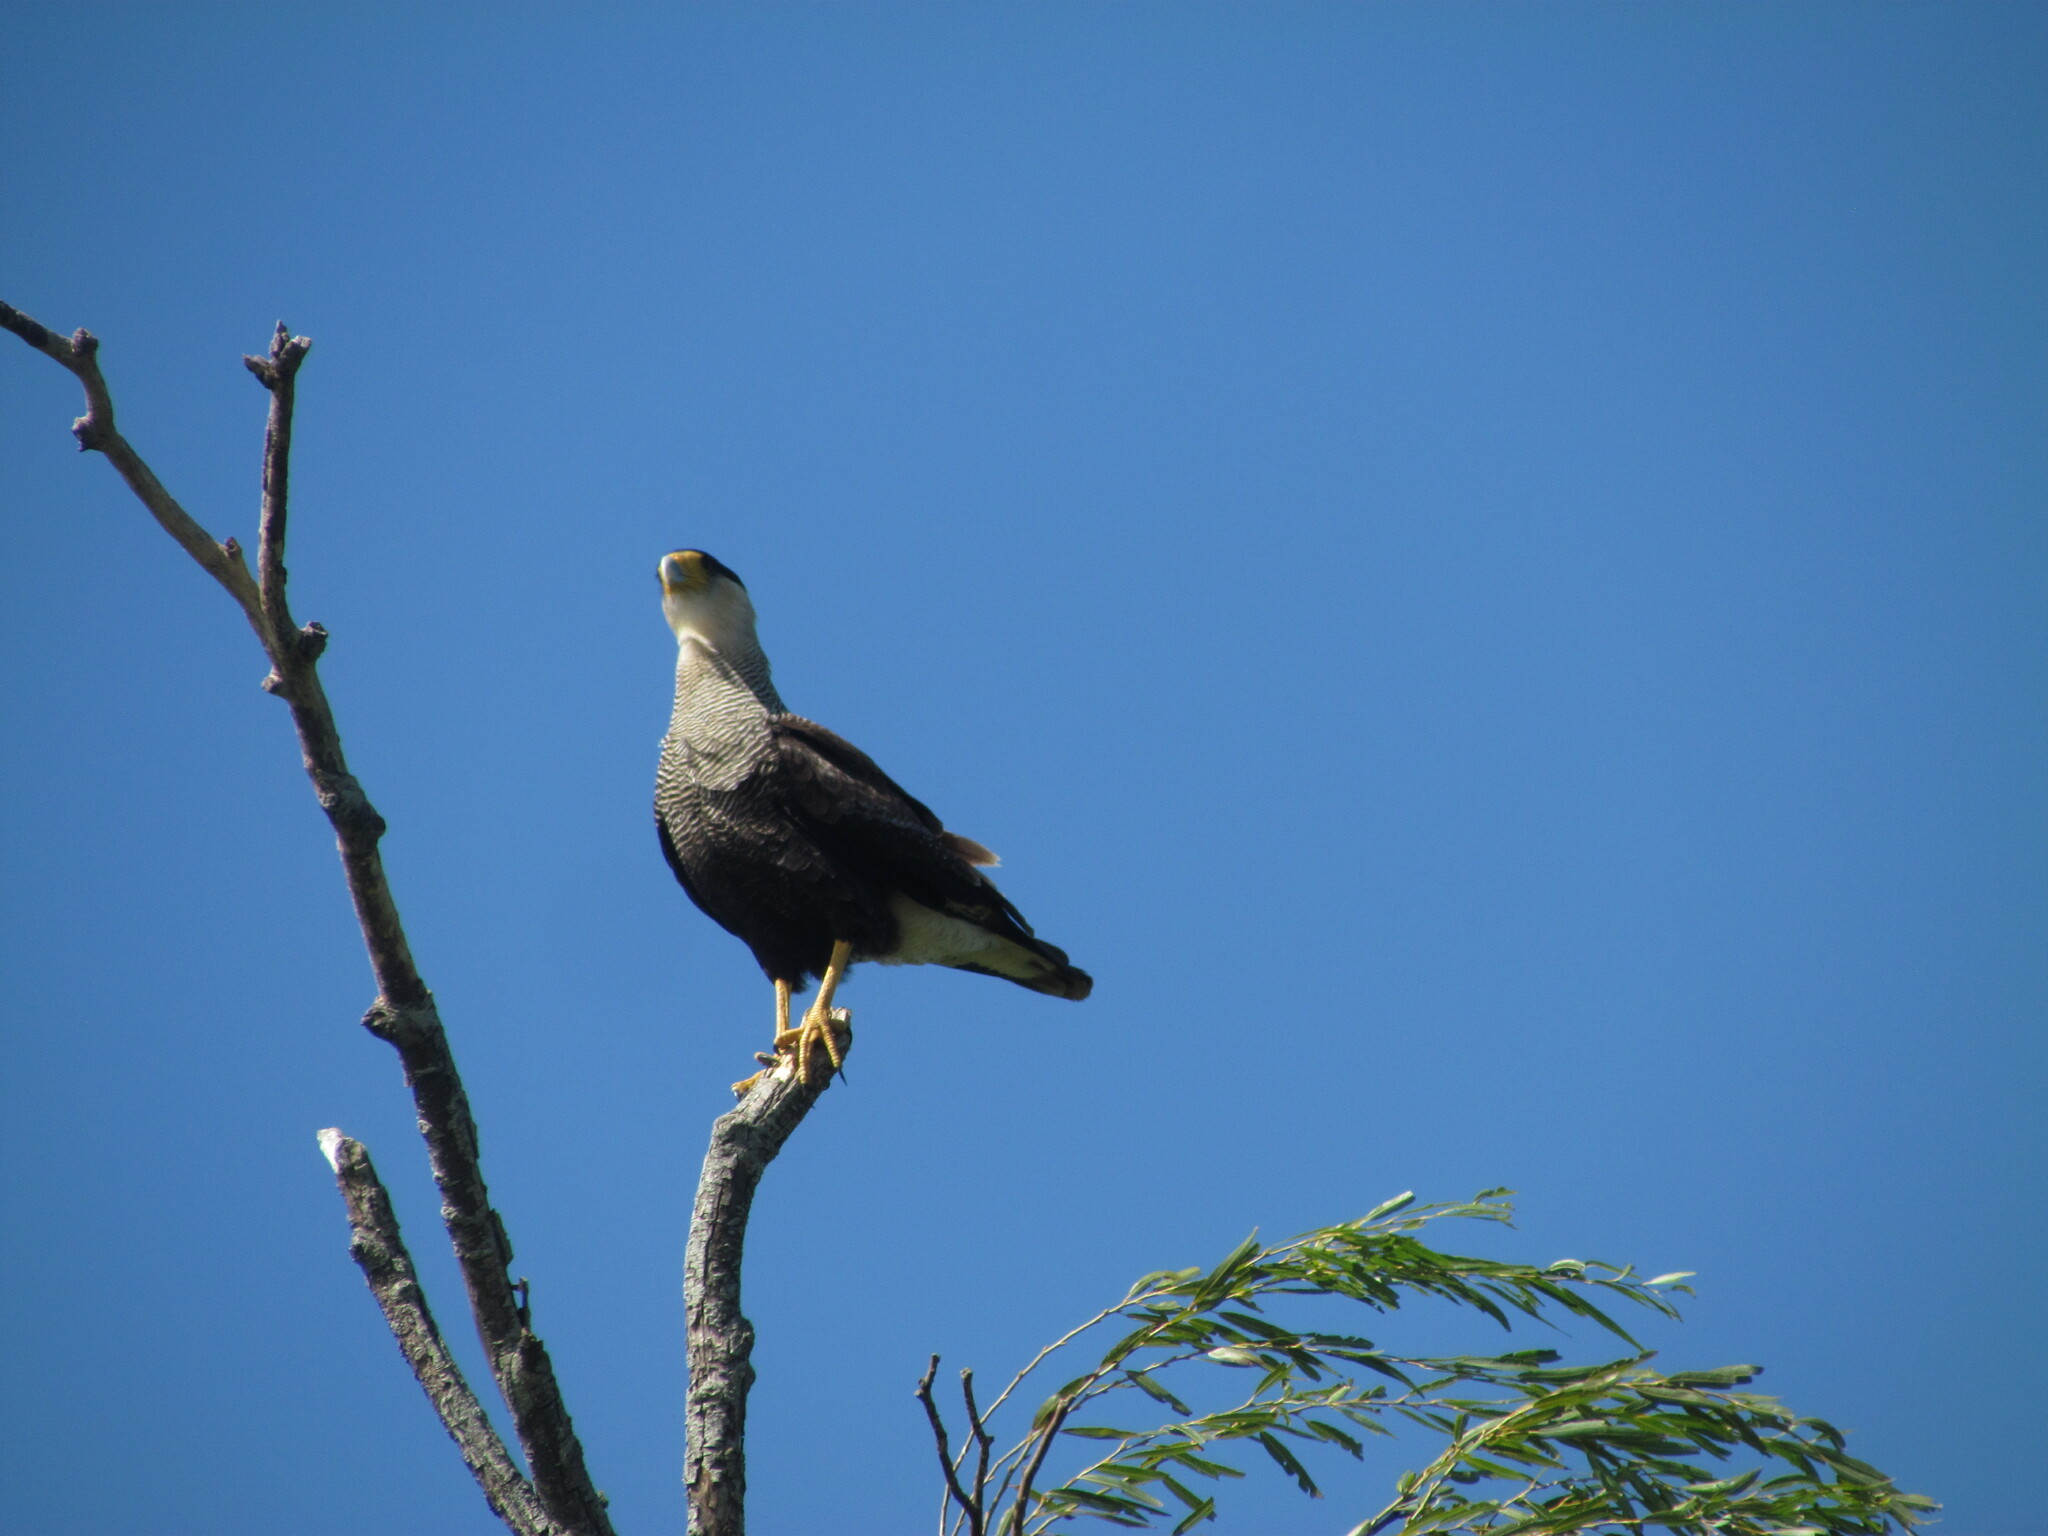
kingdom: Animalia
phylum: Chordata
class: Aves
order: Falconiformes
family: Falconidae
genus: Caracara
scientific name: Caracara plancus
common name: Southern caracara
